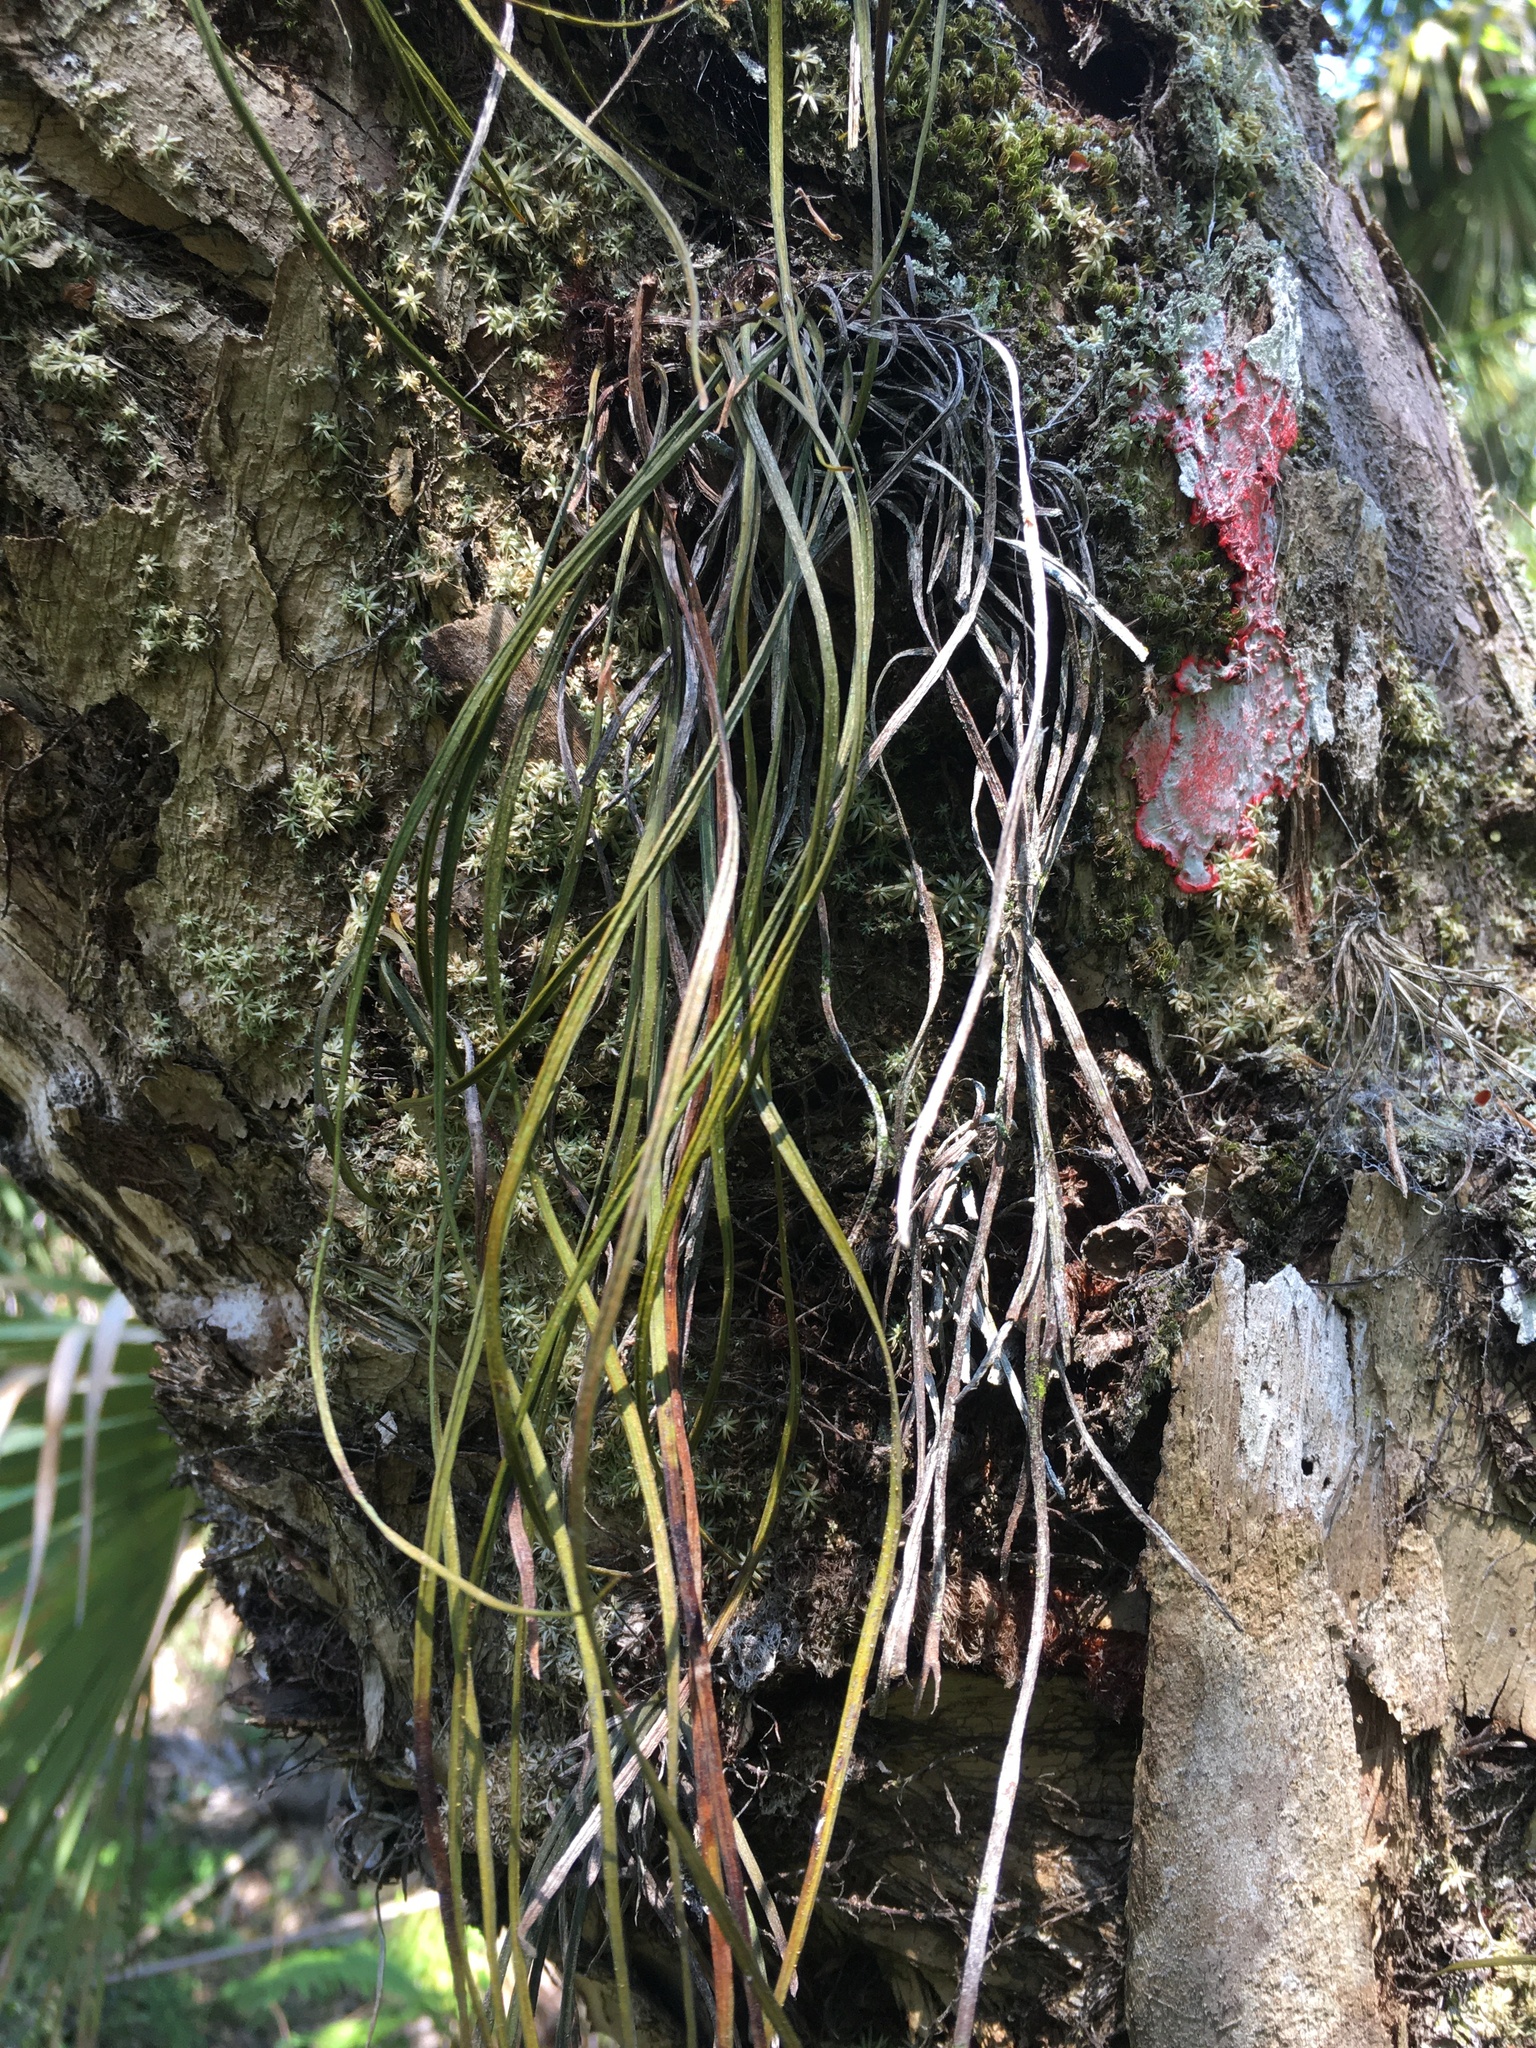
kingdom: Plantae
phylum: Tracheophyta
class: Polypodiopsida
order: Polypodiales
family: Pteridaceae
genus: Vittaria
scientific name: Vittaria lineata
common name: Shoestring fern
